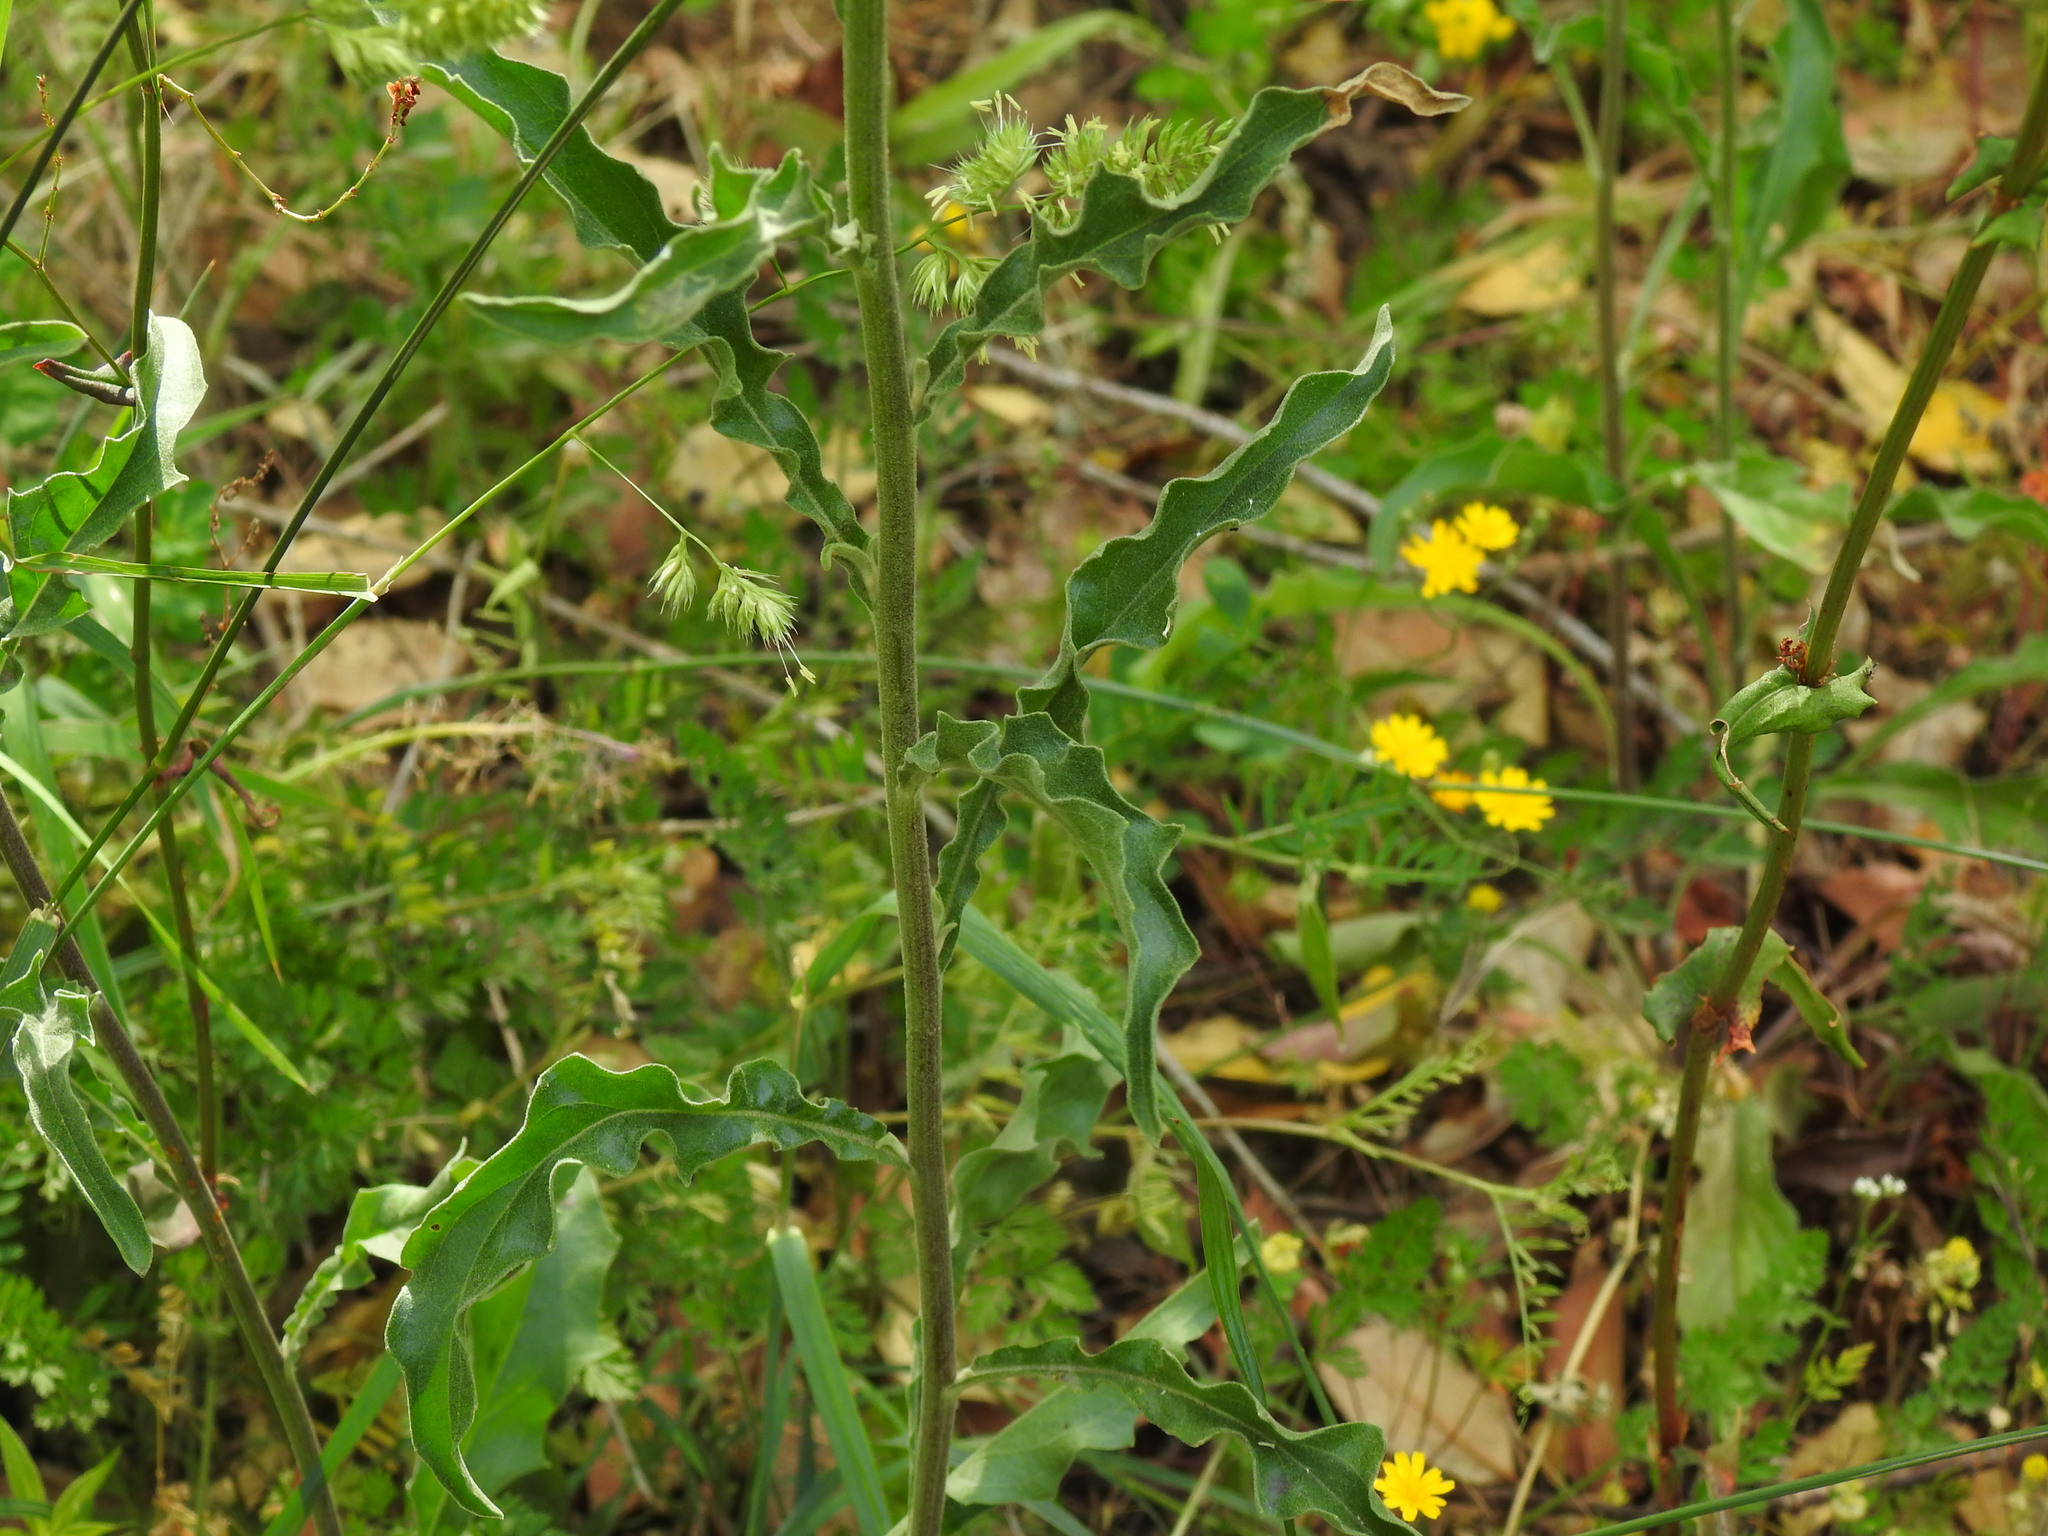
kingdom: Plantae
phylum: Tracheophyta
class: Magnoliopsida
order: Asterales
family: Asteraceae
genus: Andryala
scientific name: Andryala integrifolia
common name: Common andryala
